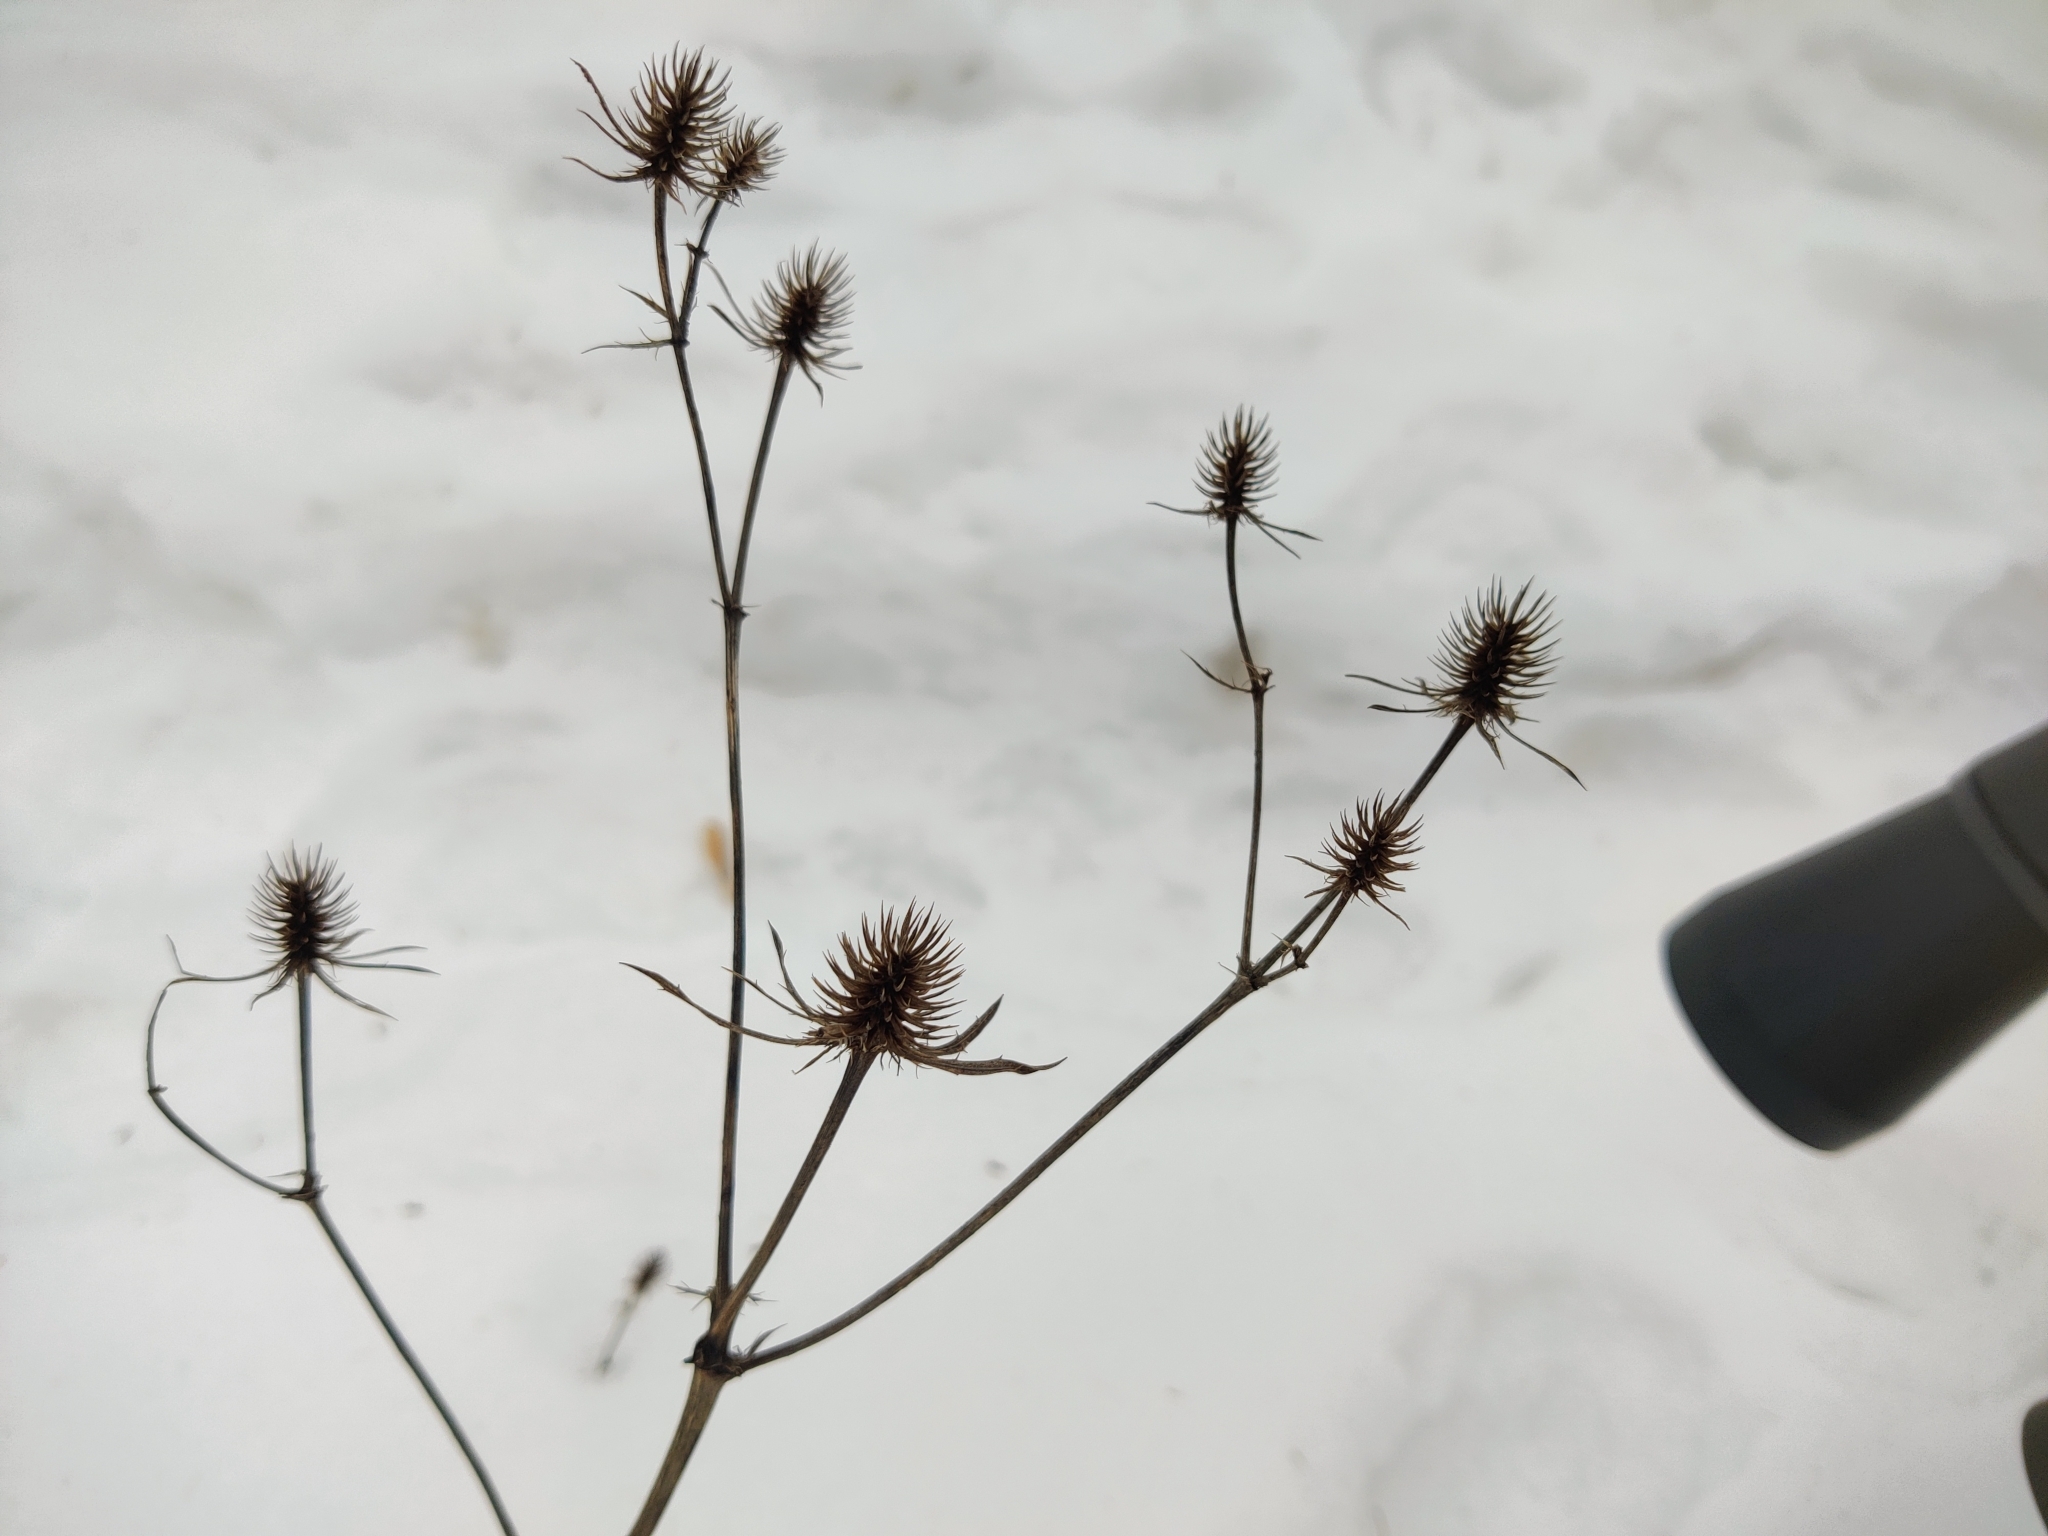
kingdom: Plantae
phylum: Tracheophyta
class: Magnoliopsida
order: Apiales
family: Apiaceae
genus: Eryngium
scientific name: Eryngium planum
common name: Blue eryngo
